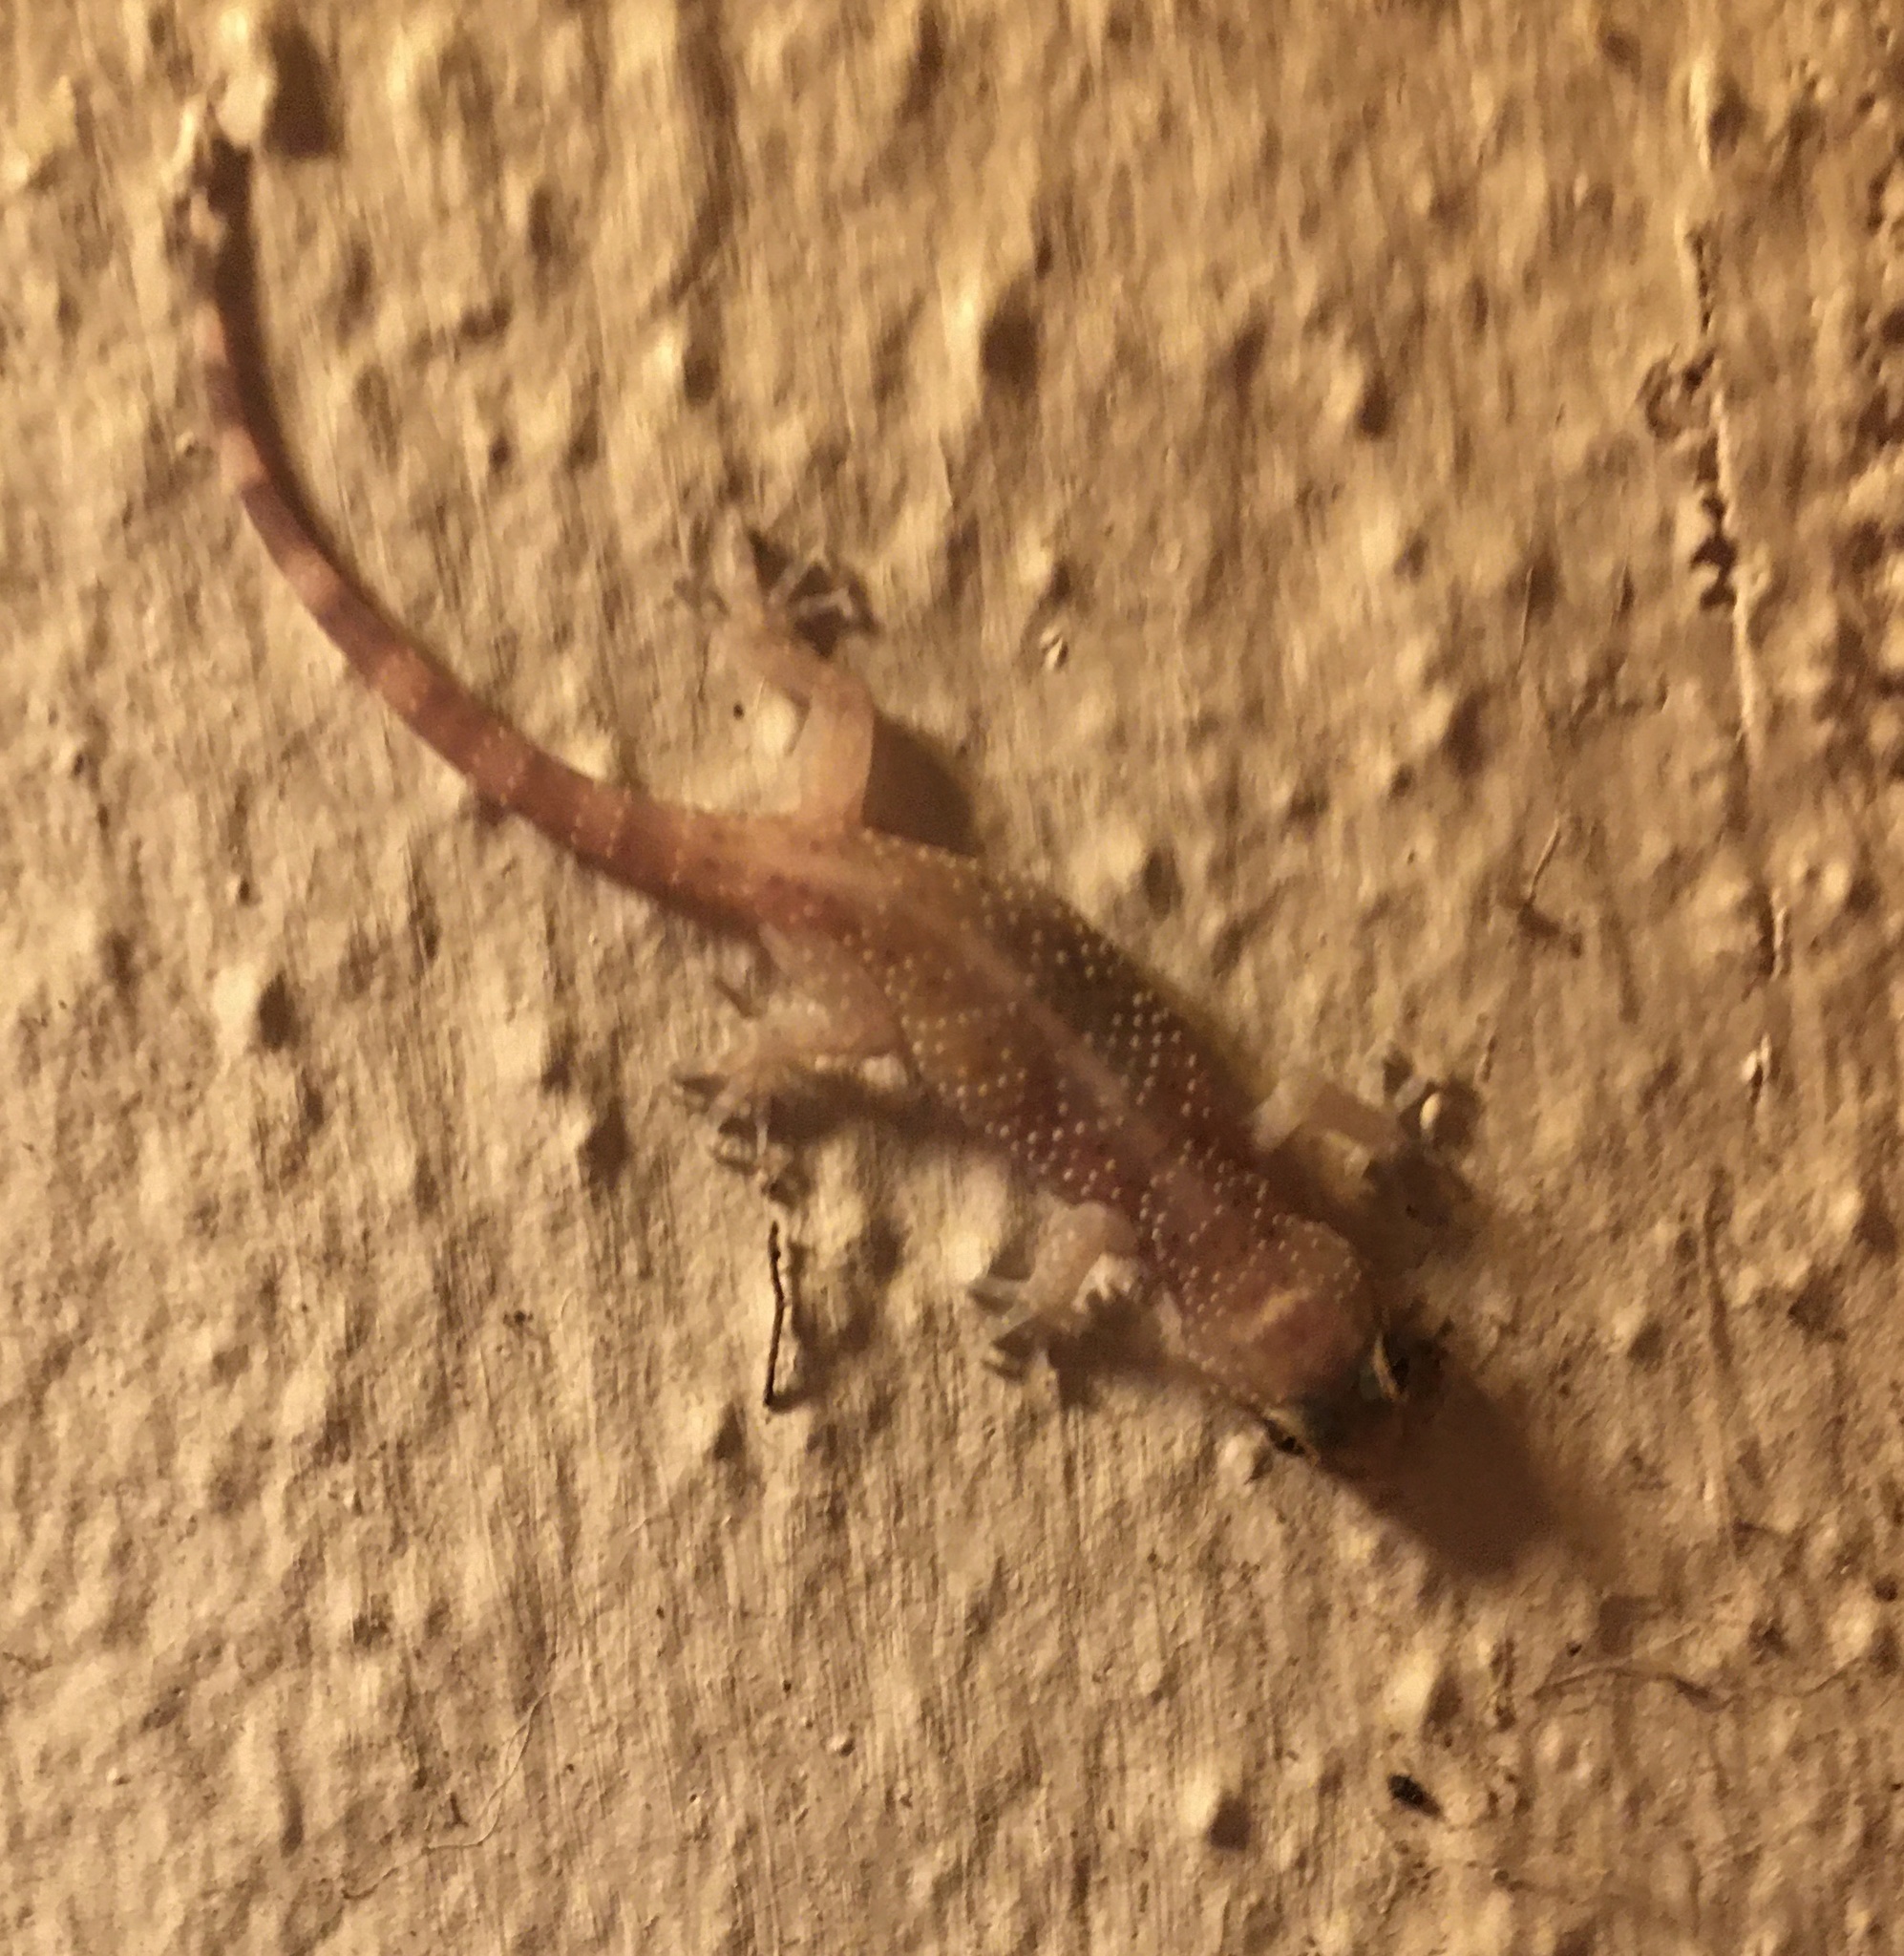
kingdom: Animalia
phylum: Chordata
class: Squamata
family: Gekkonidae
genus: Hemidactylus
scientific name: Hemidactylus turcicus
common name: Turkish gecko
